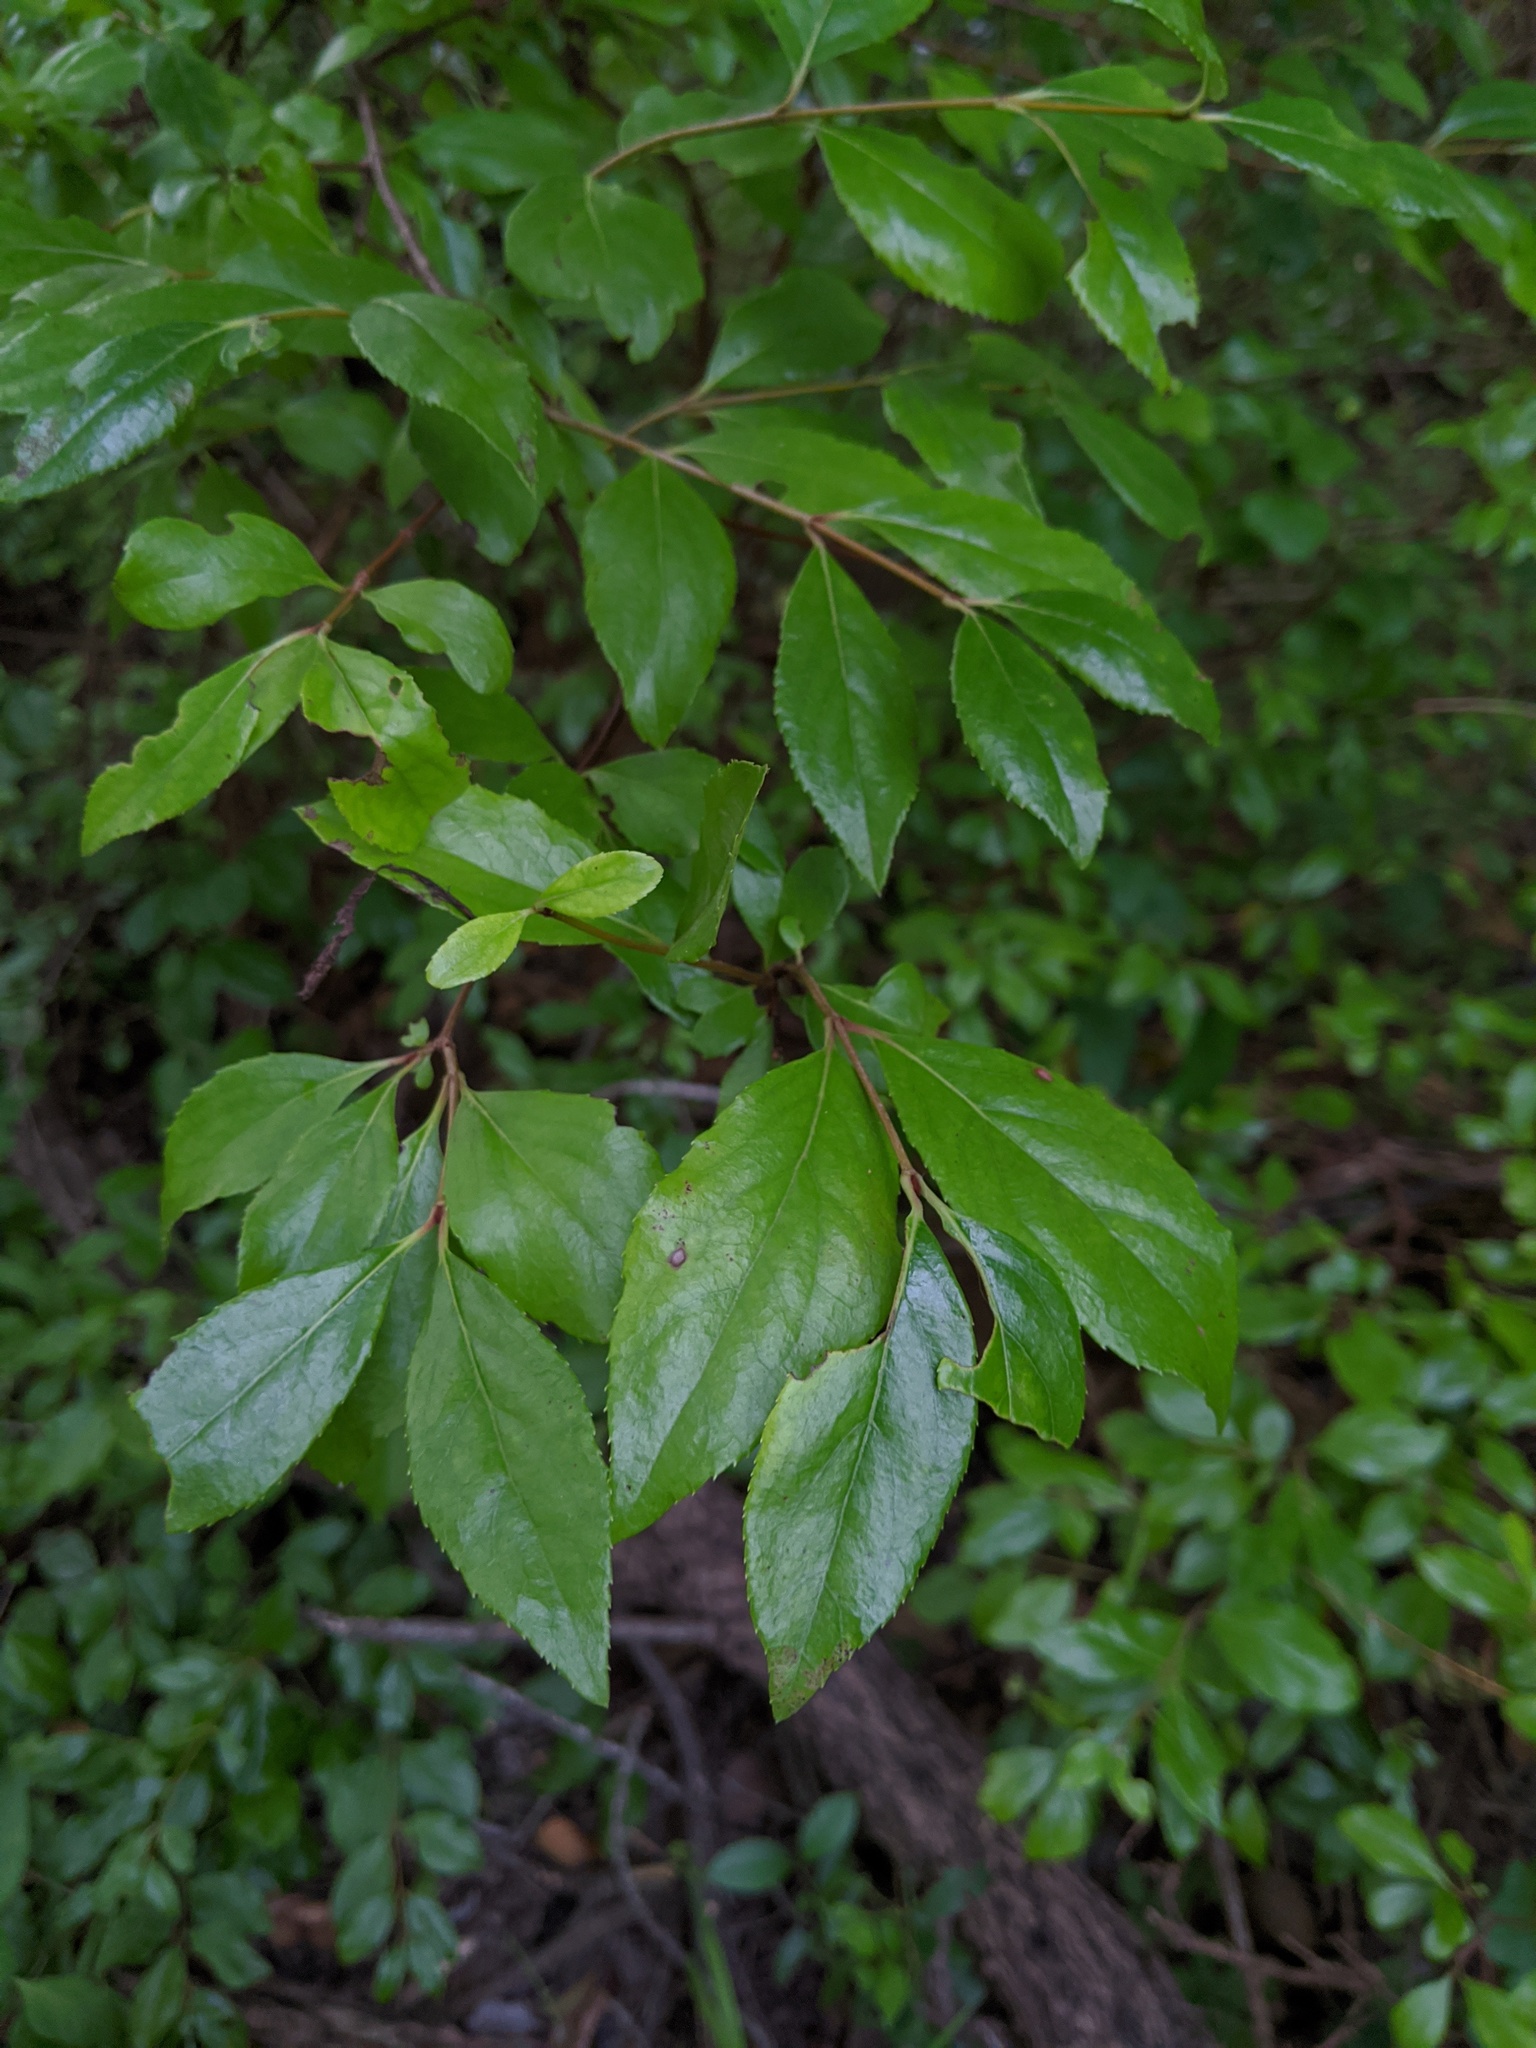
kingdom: Plantae
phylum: Tracheophyta
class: Magnoliopsida
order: Dipsacales
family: Viburnaceae
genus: Viburnum
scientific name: Viburnum rufidulum
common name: Blue haw
